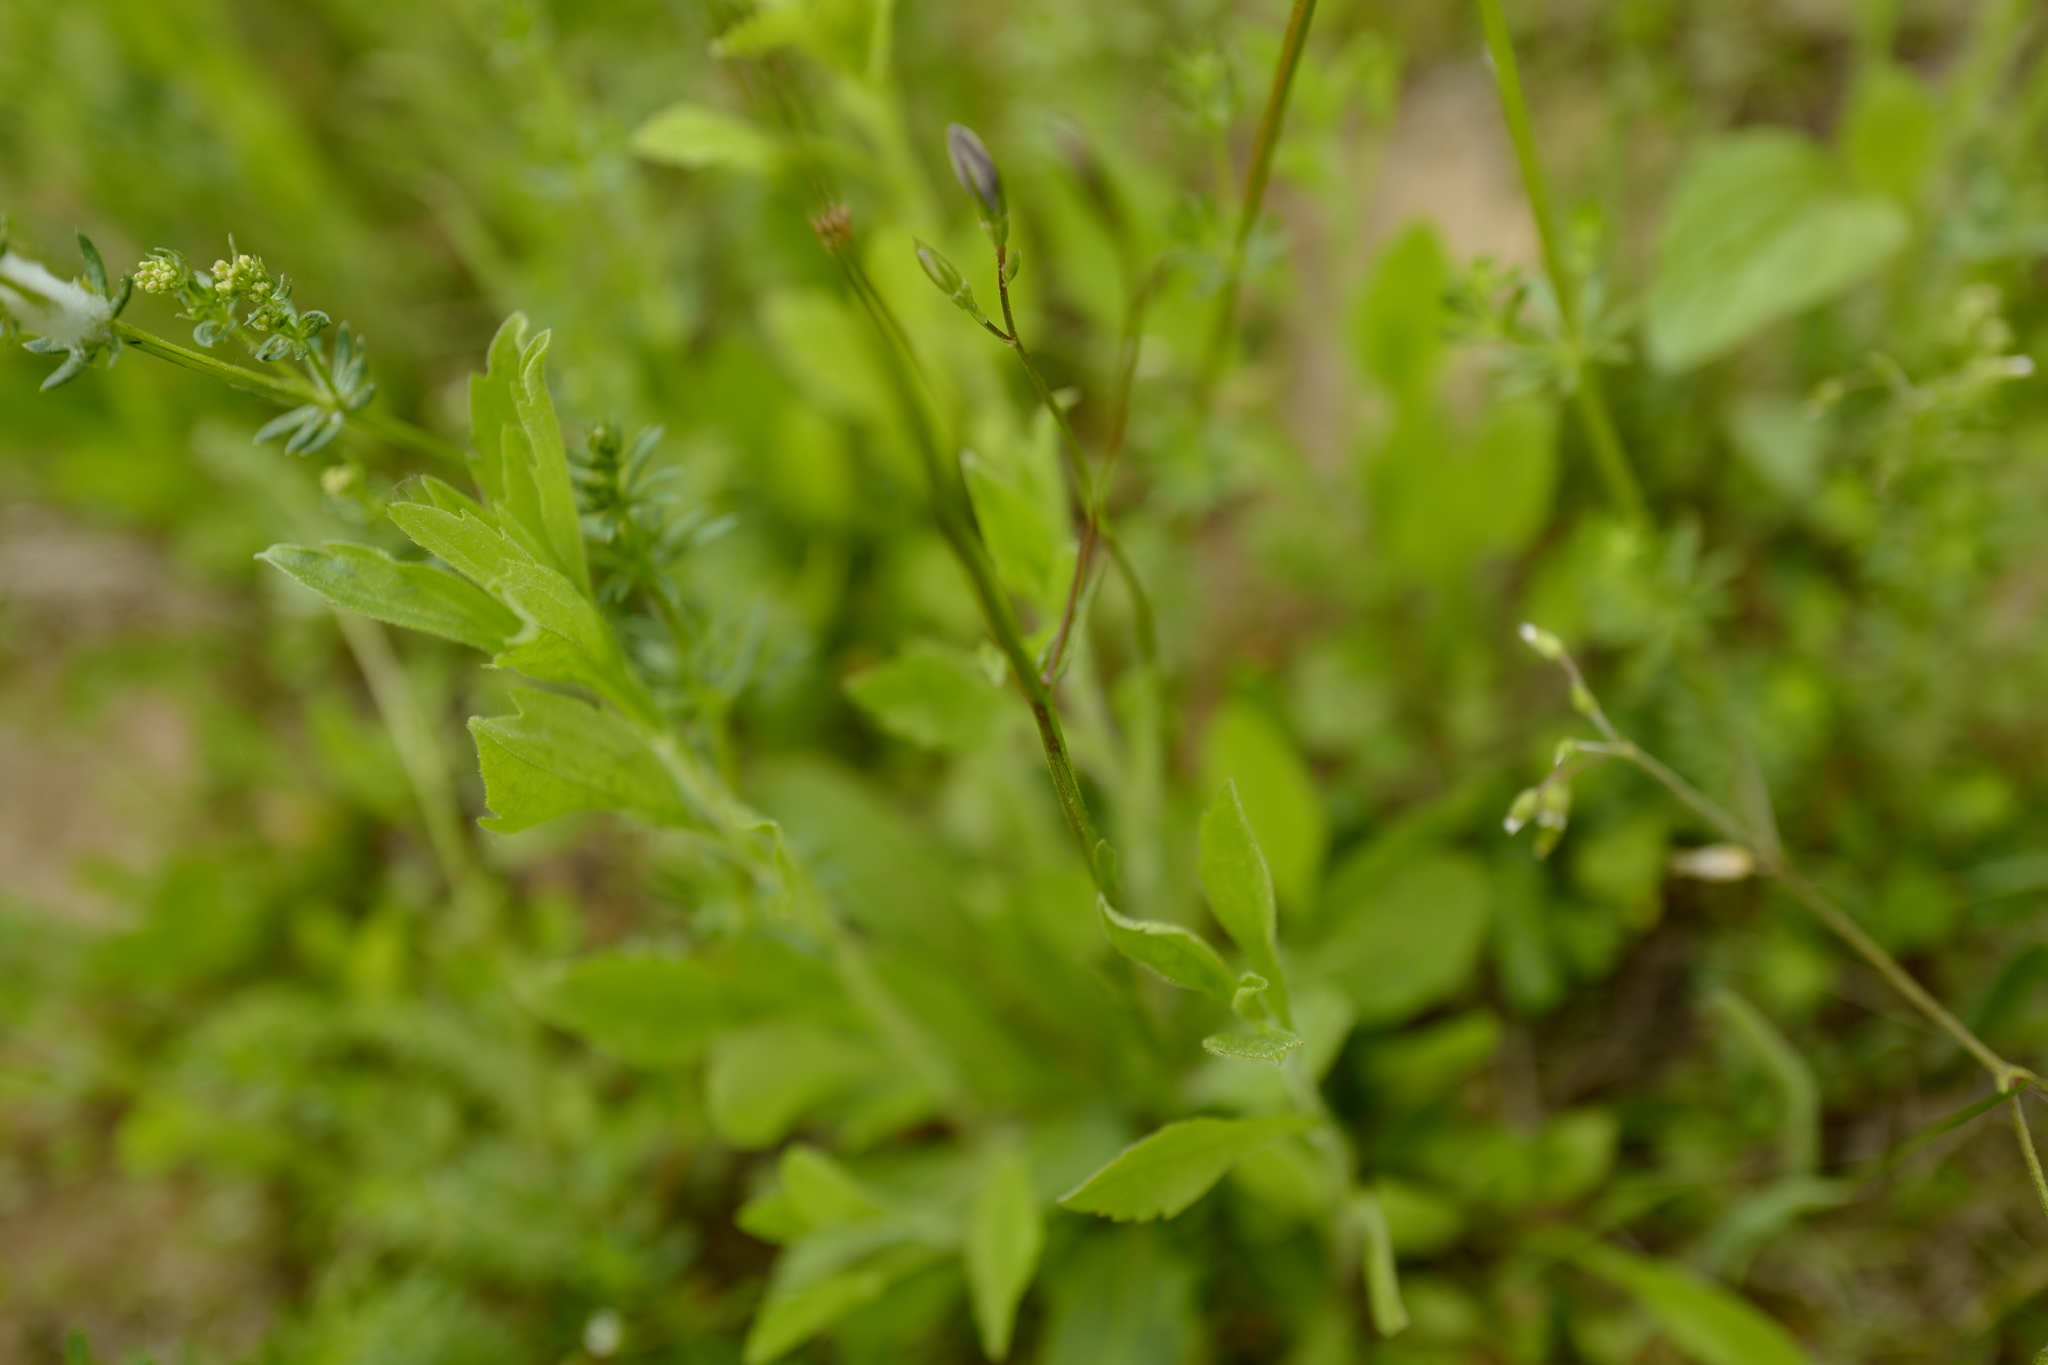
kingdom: Plantae
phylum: Tracheophyta
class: Magnoliopsida
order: Asterales
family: Campanulaceae
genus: Campanula
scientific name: Campanula patula
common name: Spreading bellflower
